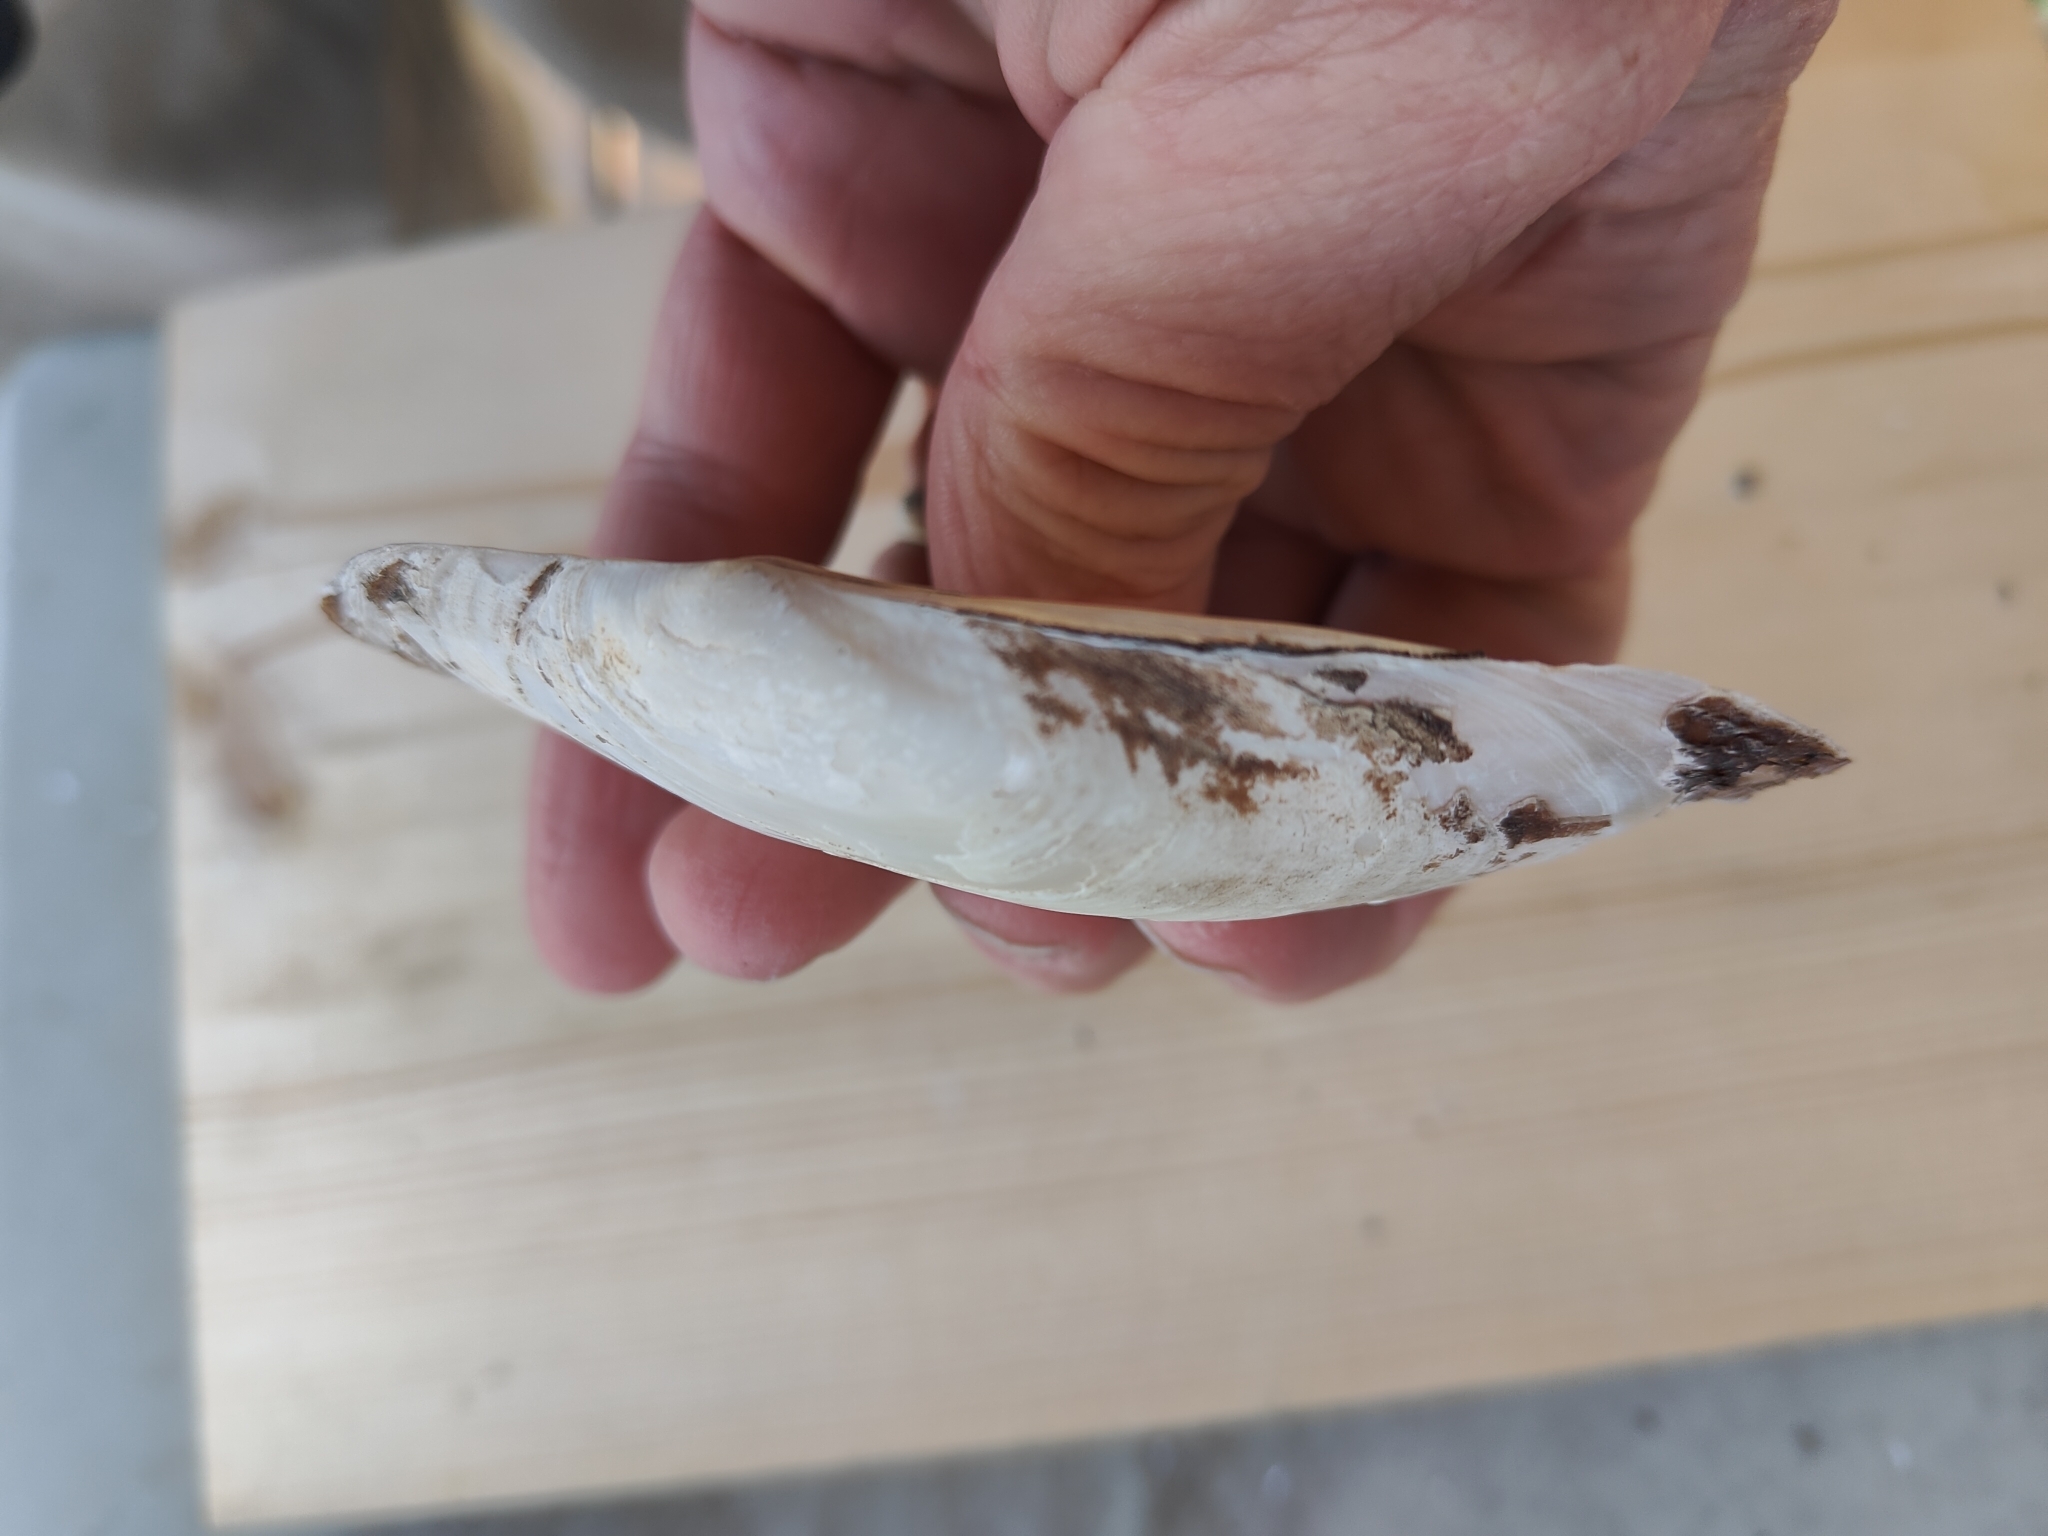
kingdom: Animalia
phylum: Mollusca
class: Bivalvia
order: Unionida
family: Unionidae
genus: Potamilus
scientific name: Potamilus fragilis
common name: Fragile papershell
